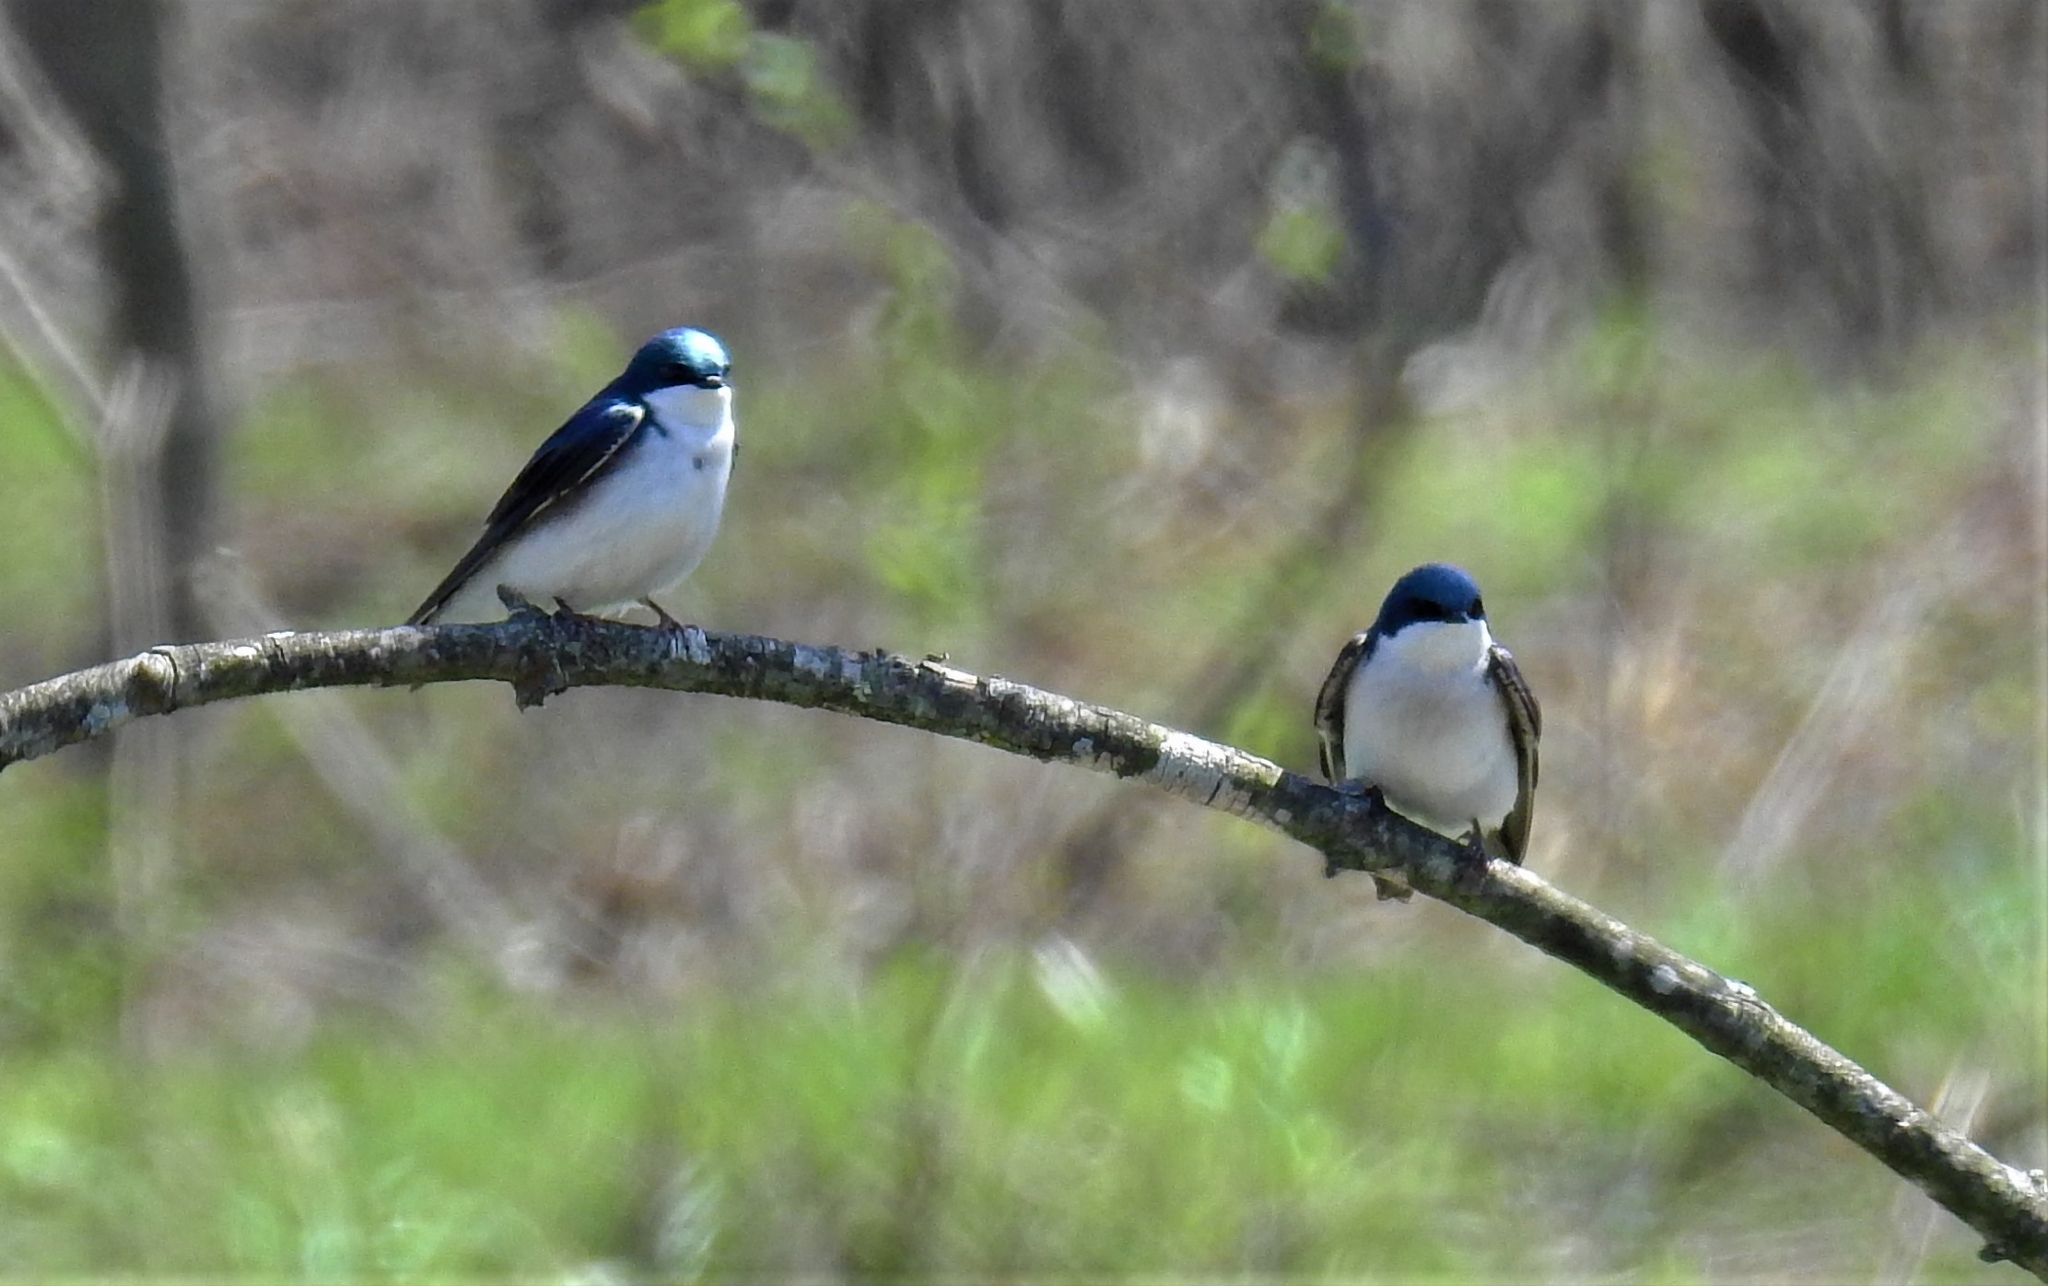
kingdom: Animalia
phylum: Chordata
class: Aves
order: Passeriformes
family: Hirundinidae
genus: Tachycineta
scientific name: Tachycineta bicolor
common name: Tree swallow
